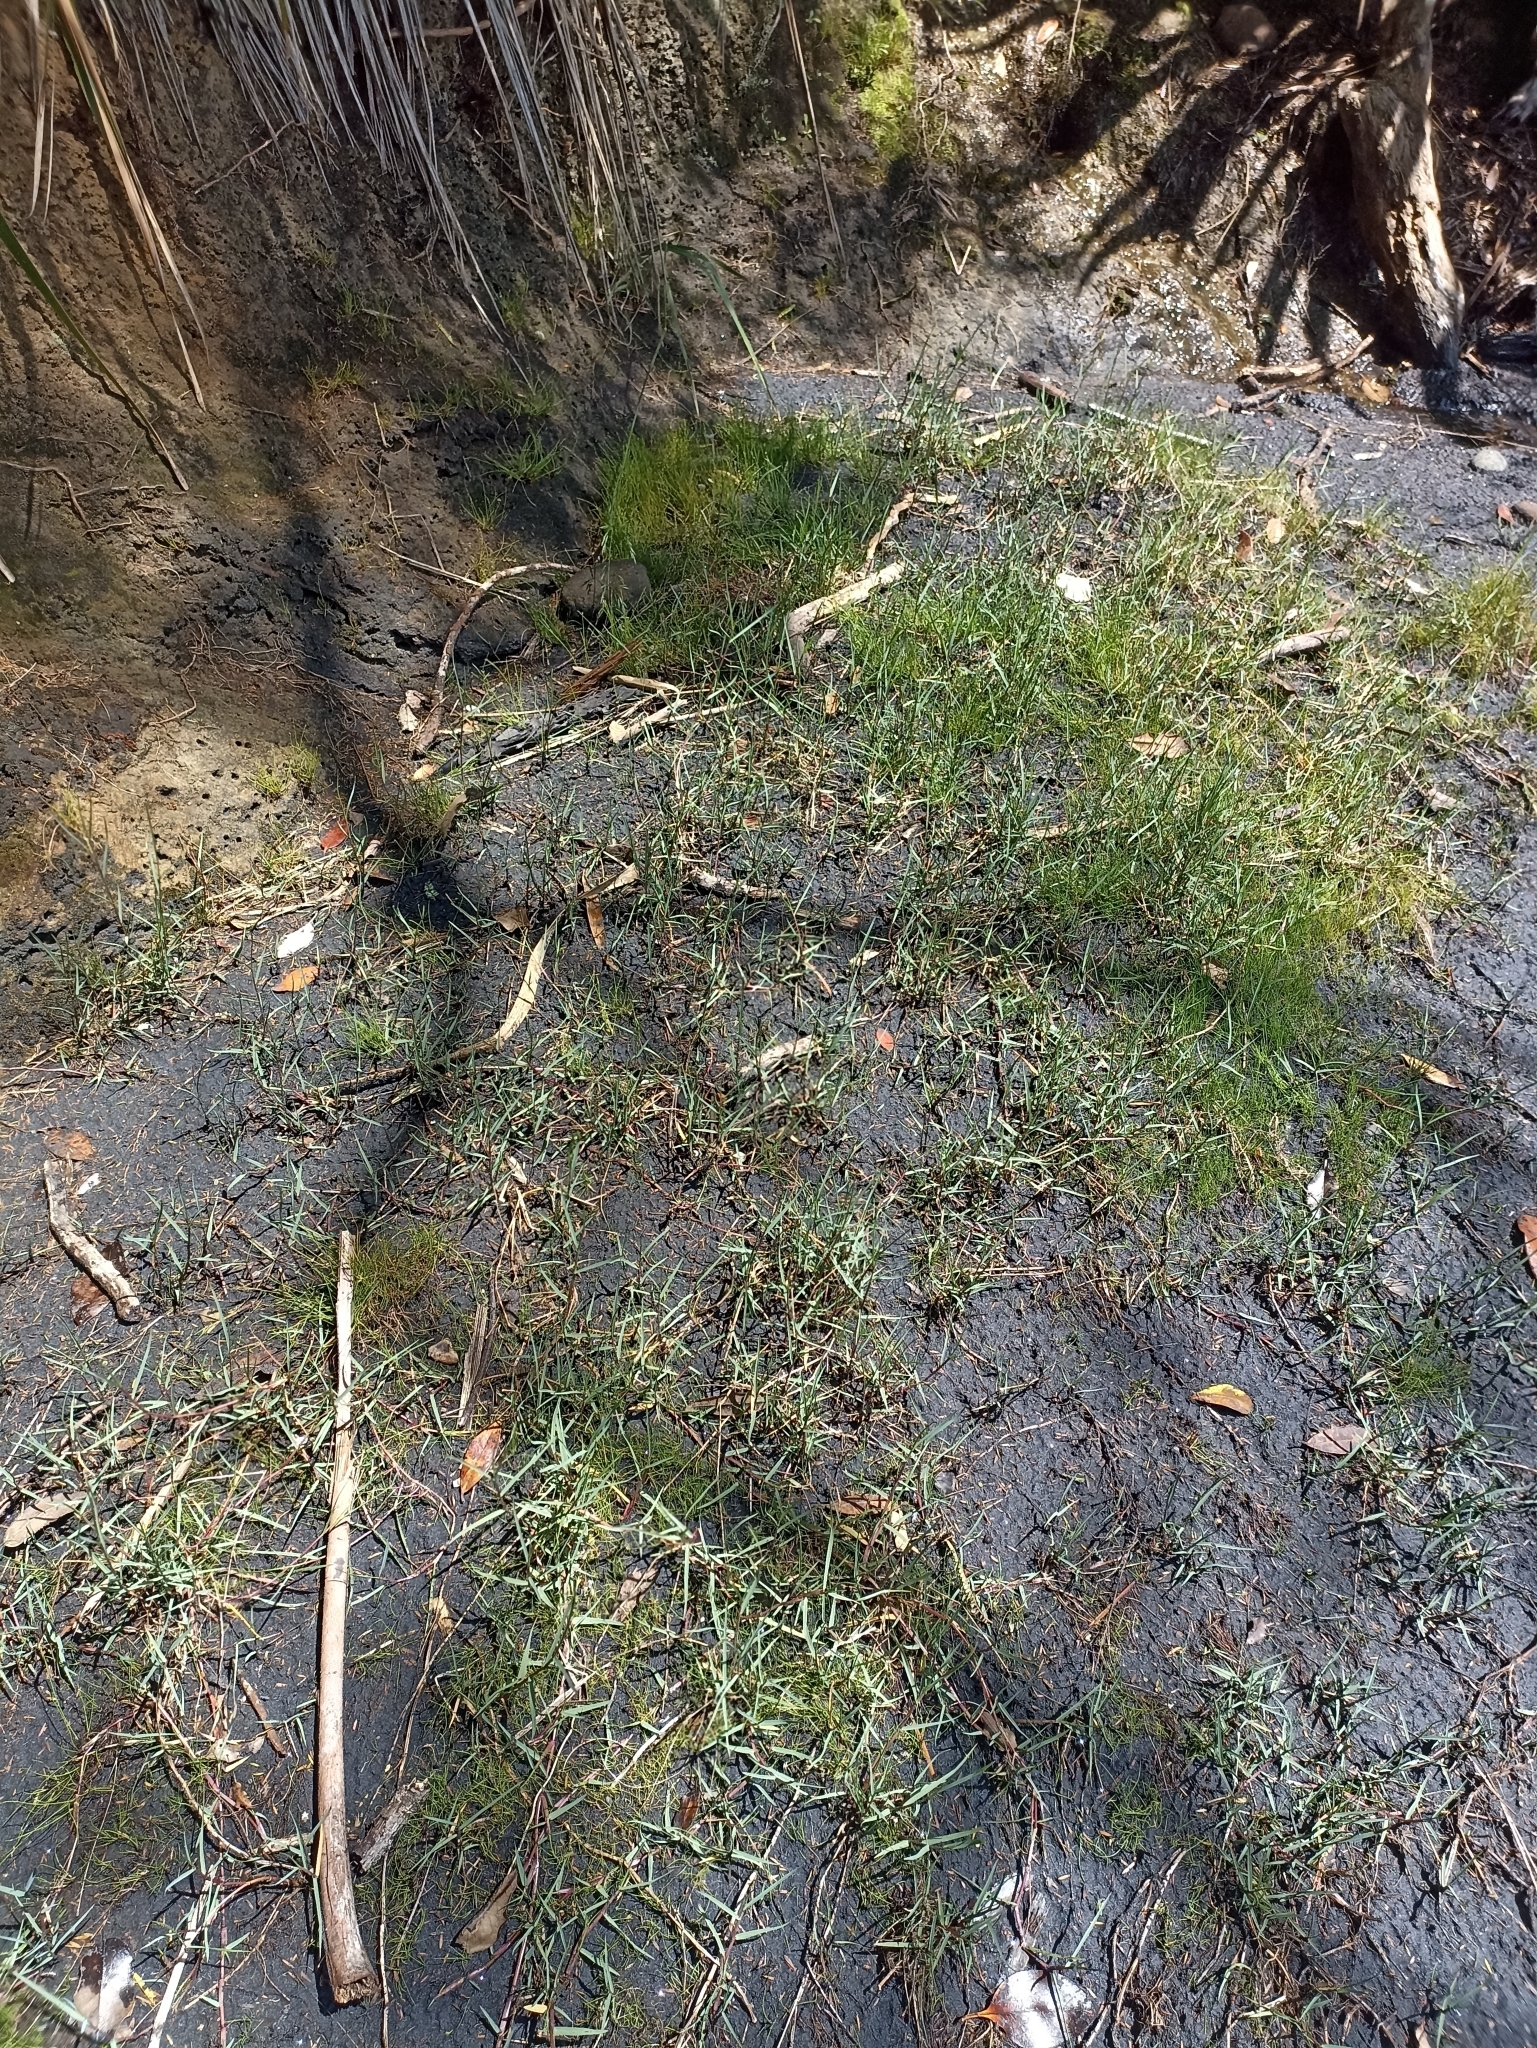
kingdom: Plantae
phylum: Tracheophyta
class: Liliopsida
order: Poales
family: Poaceae
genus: Cynodon
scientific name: Cynodon dactylon
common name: Bermuda grass
